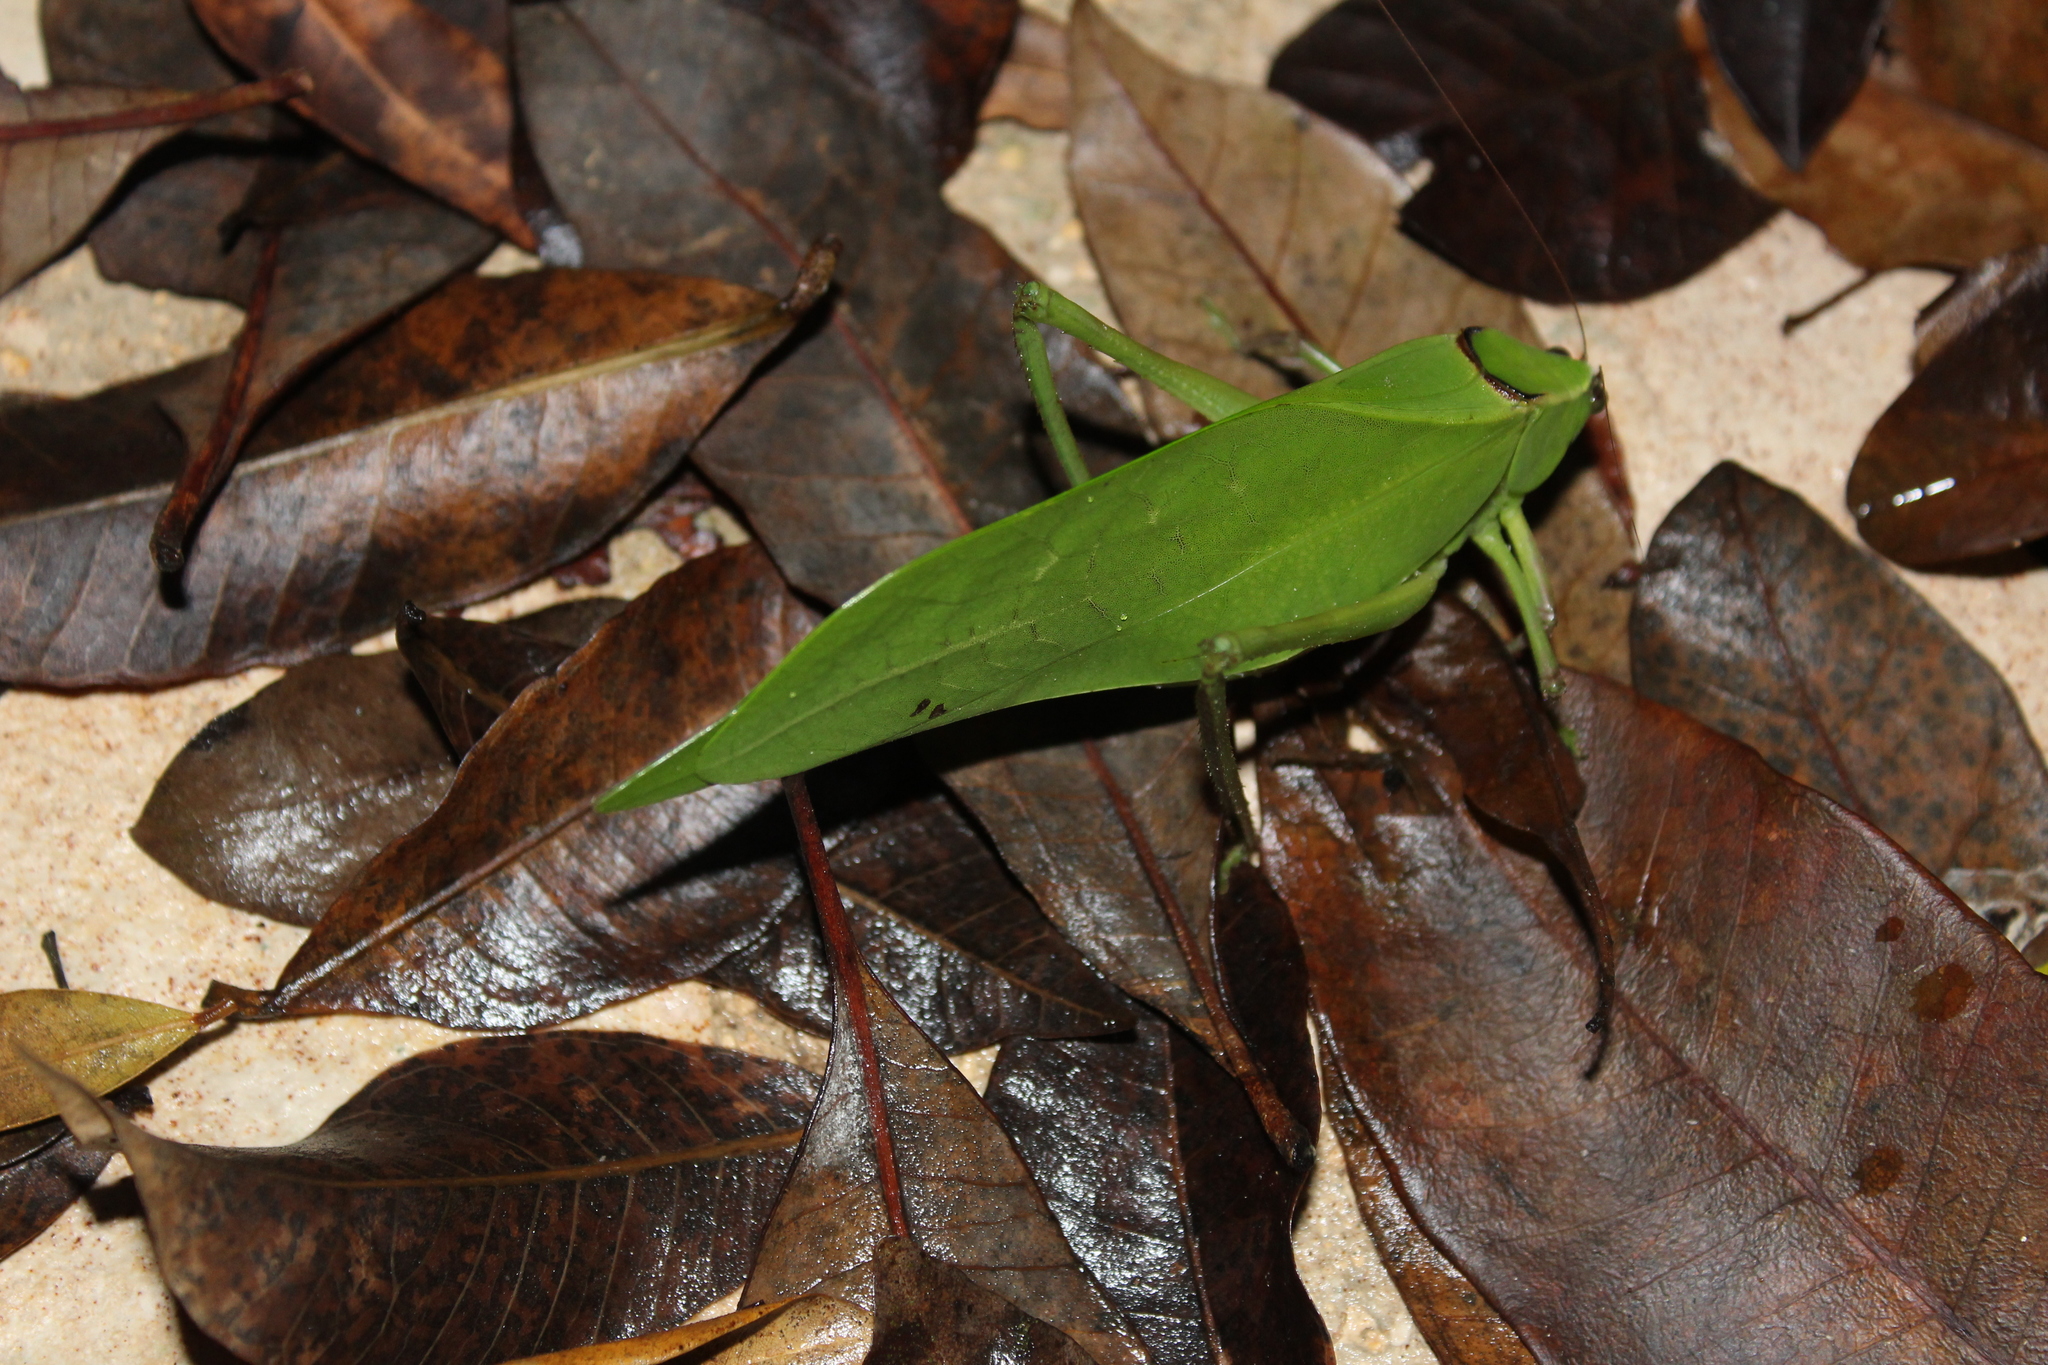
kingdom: Animalia
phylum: Arthropoda
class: Insecta
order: Orthoptera
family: Tettigoniidae
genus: Stilpnochlora
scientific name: Stilpnochlora quadrata
